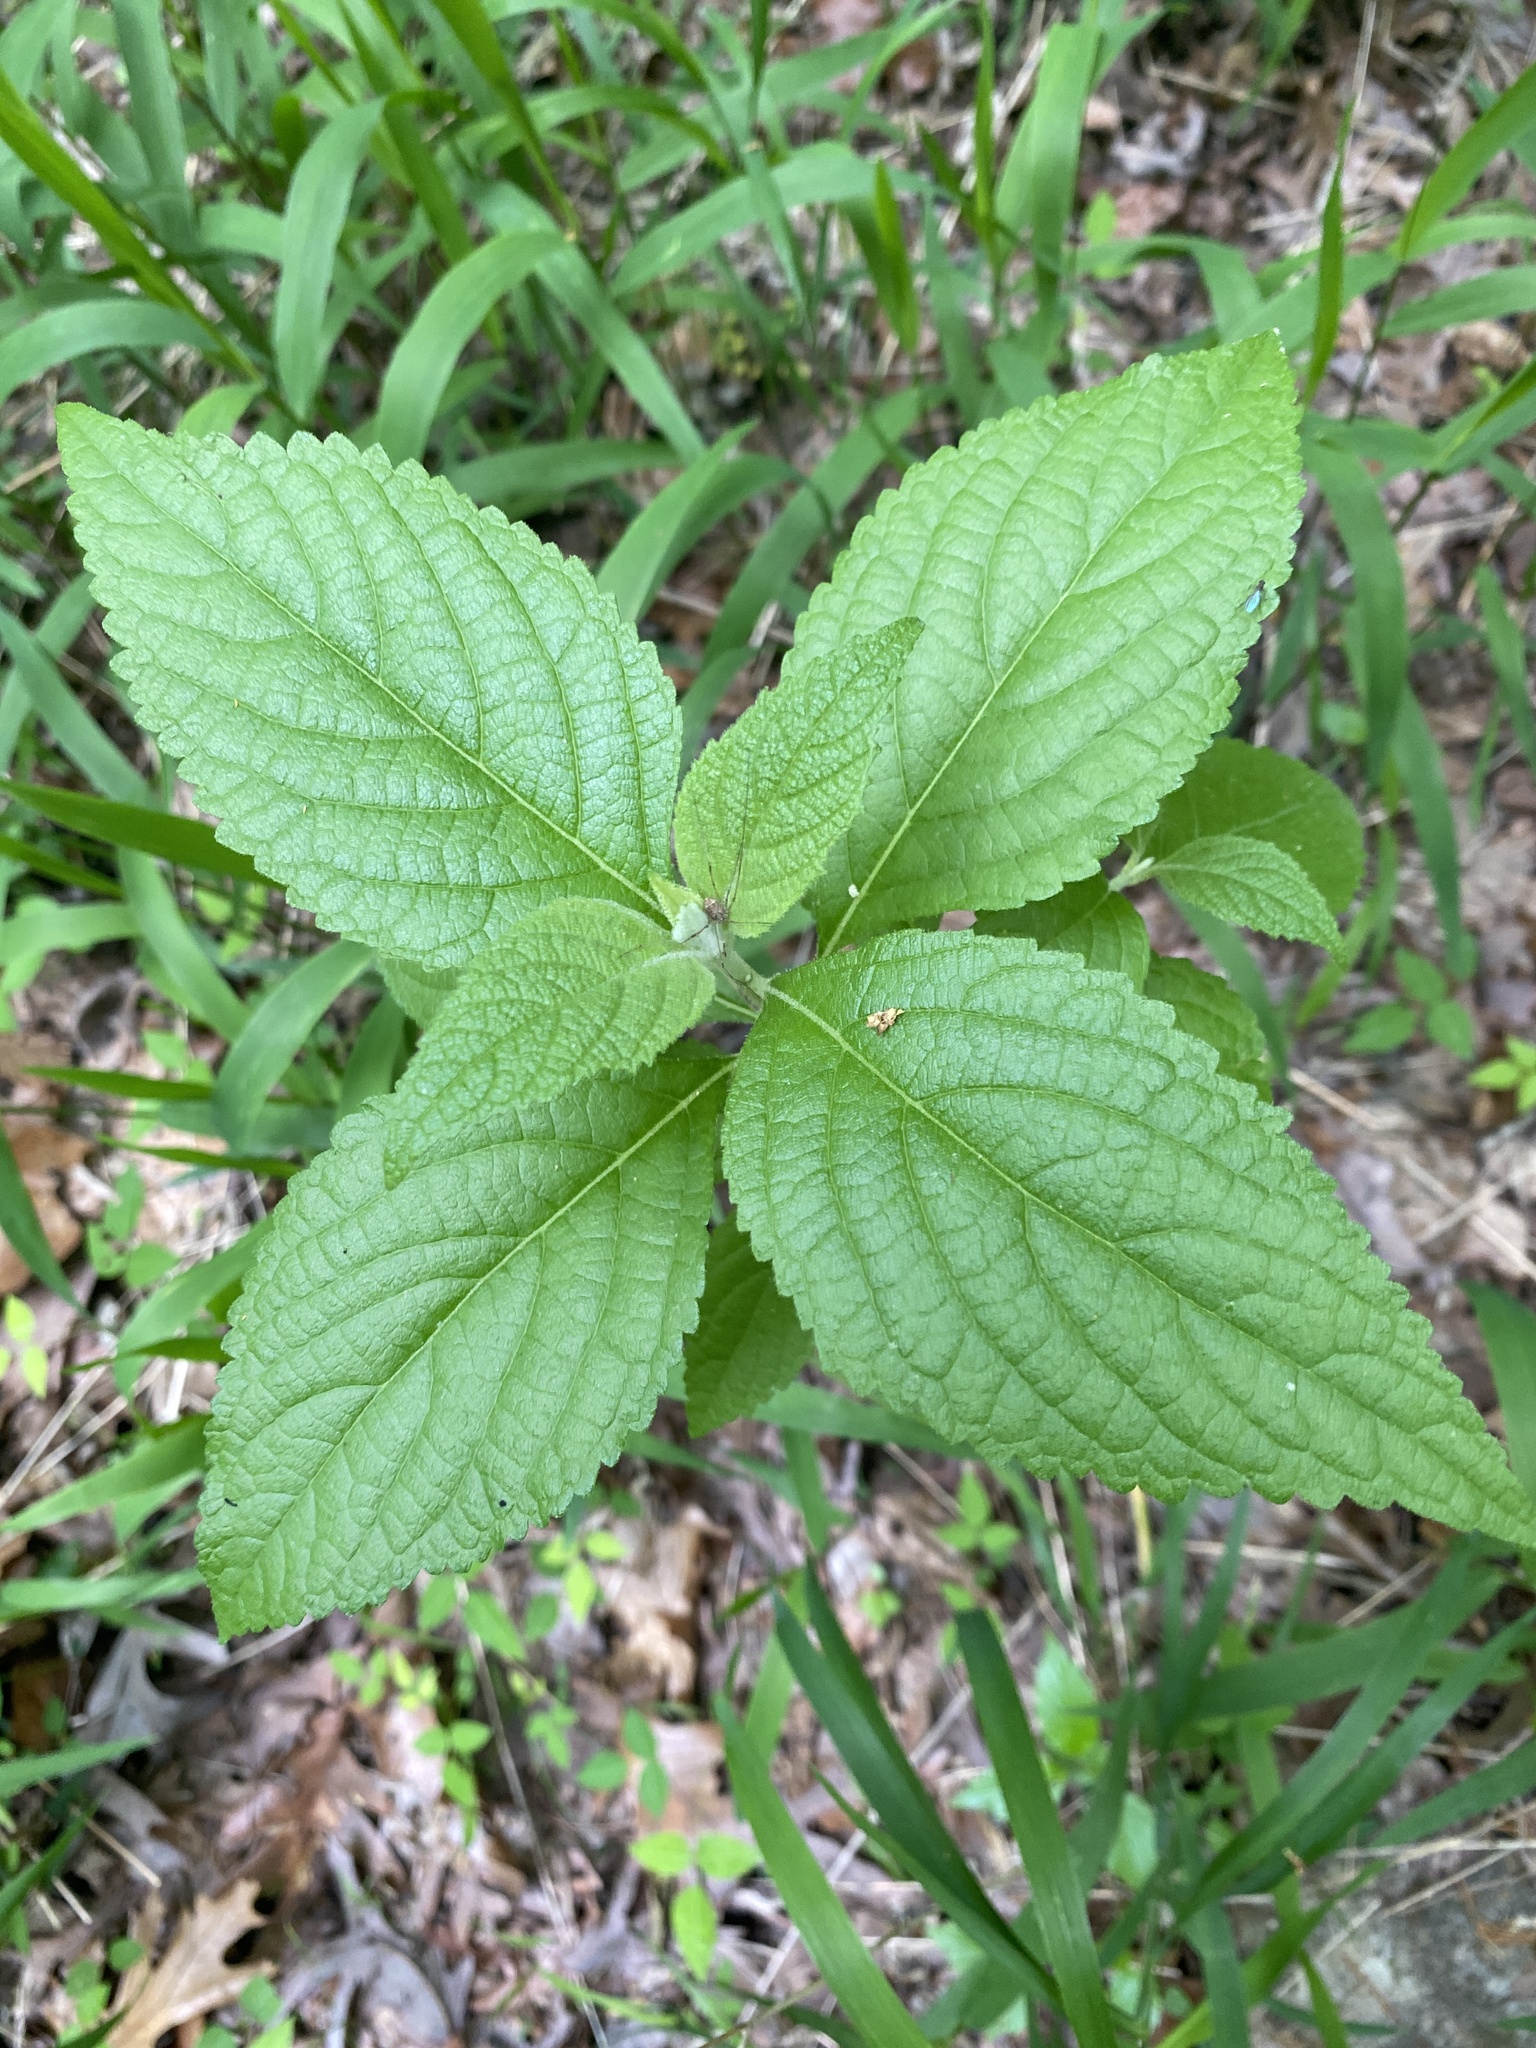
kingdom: Plantae
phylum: Tracheophyta
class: Magnoliopsida
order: Lamiales
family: Lamiaceae
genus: Callicarpa
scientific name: Callicarpa americana
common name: American beautyberry
